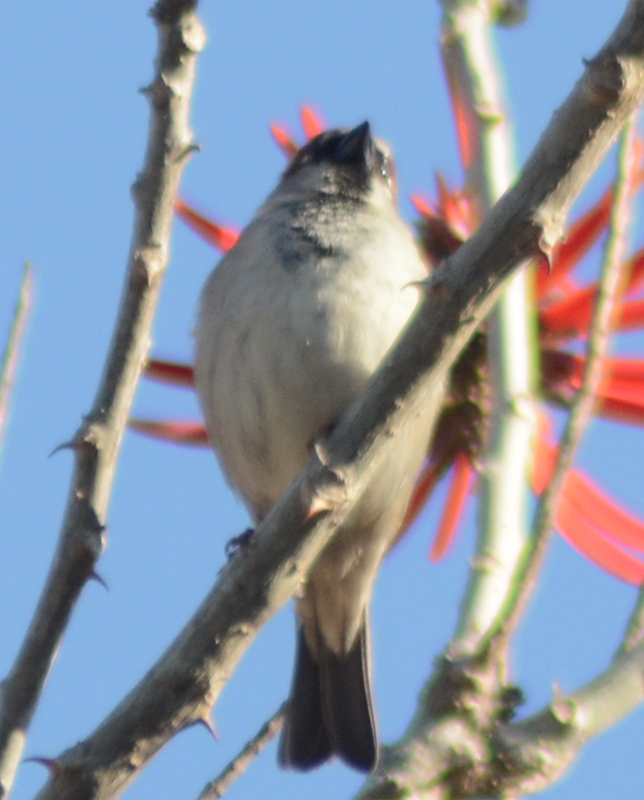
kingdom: Animalia
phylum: Chordata
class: Aves
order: Passeriformes
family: Passeridae
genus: Passer
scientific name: Passer domesticus
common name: House sparrow
